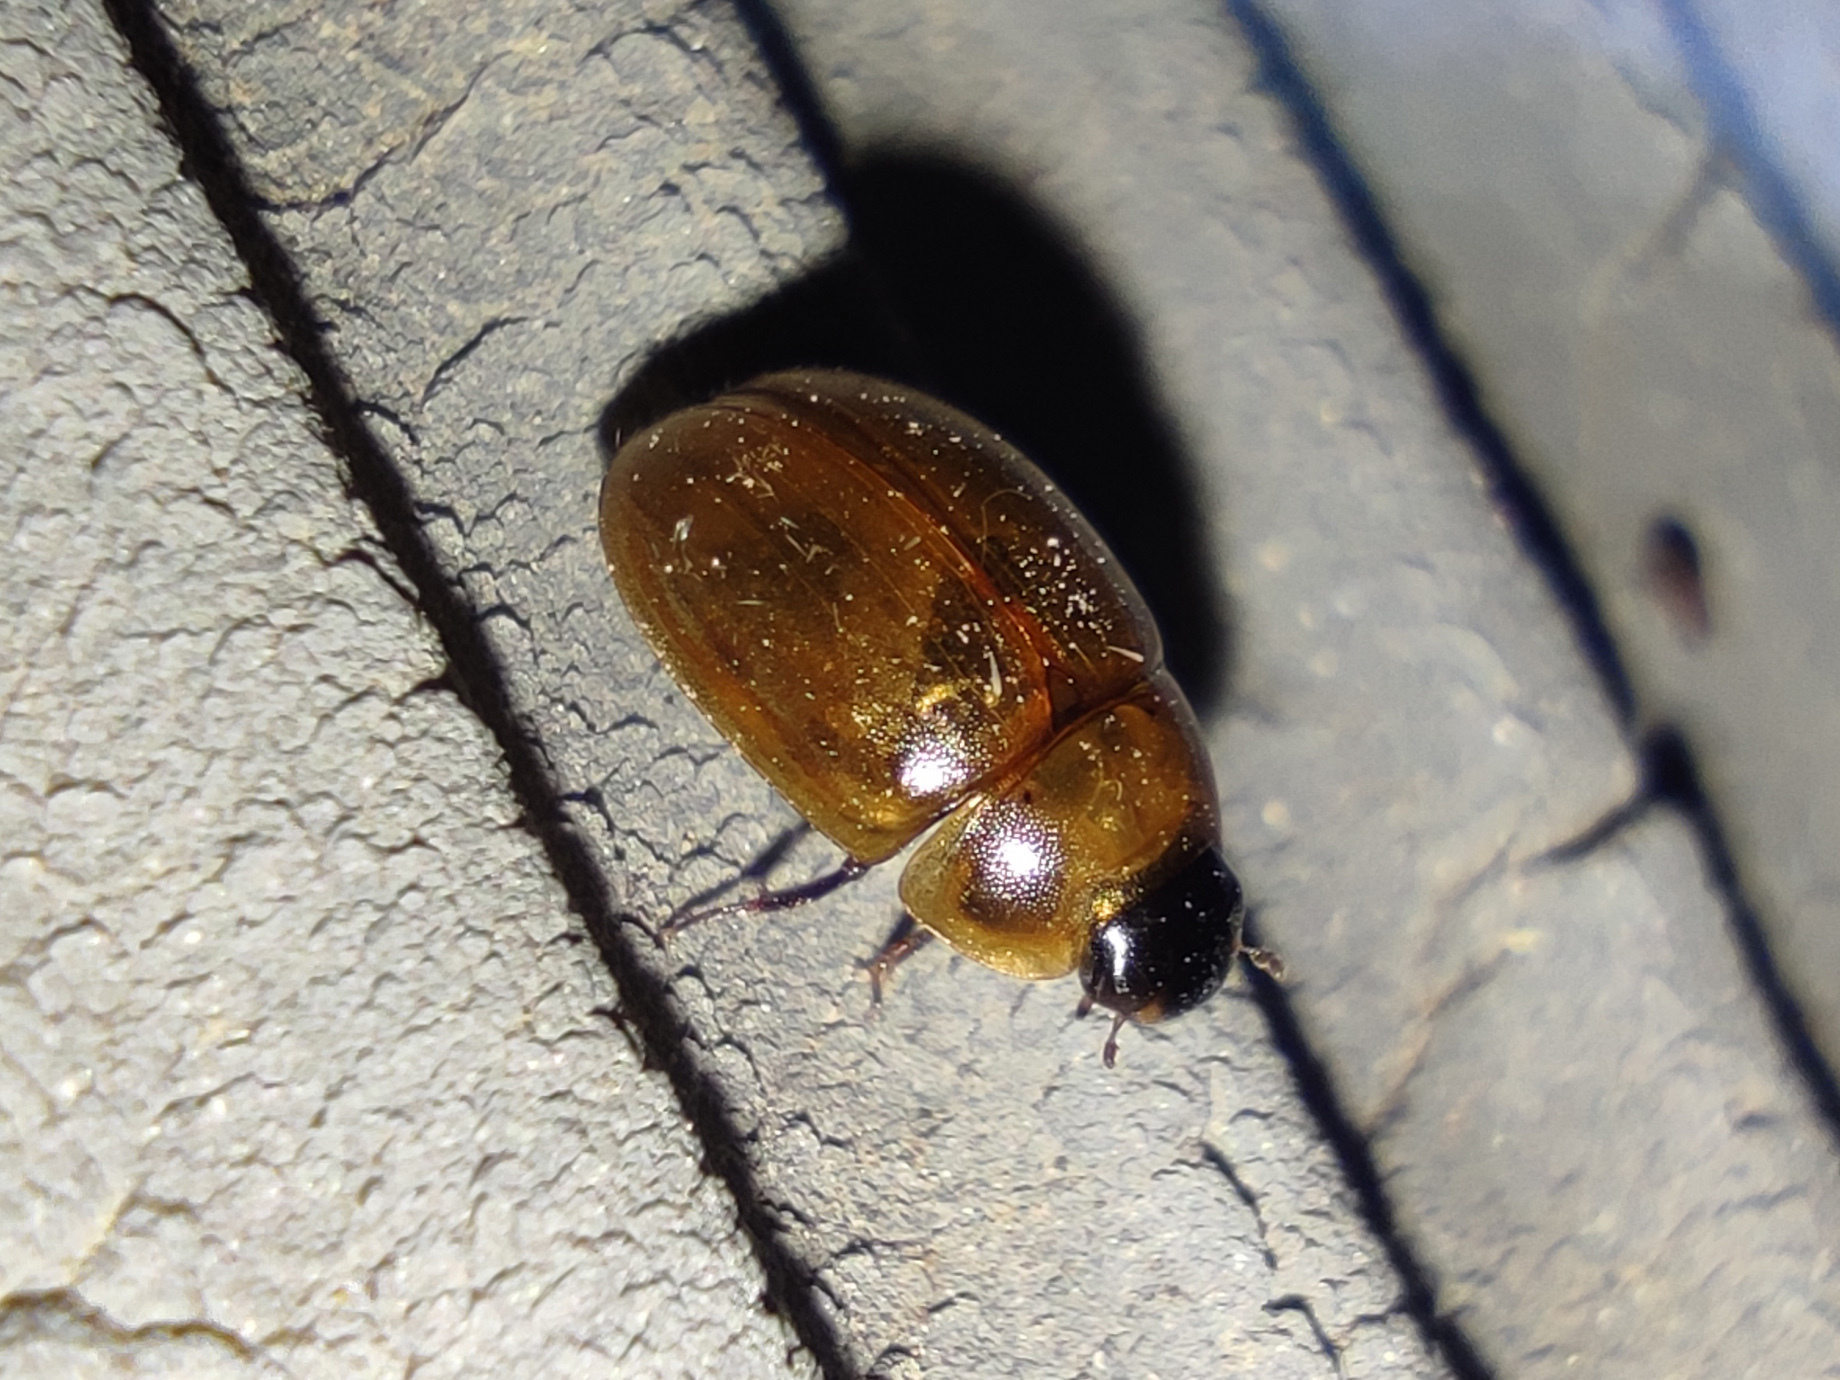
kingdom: Animalia
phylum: Arthropoda
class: Insecta
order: Coleoptera
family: Hydrophilidae
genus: Enochrus
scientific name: Enochrus melanocephalus
